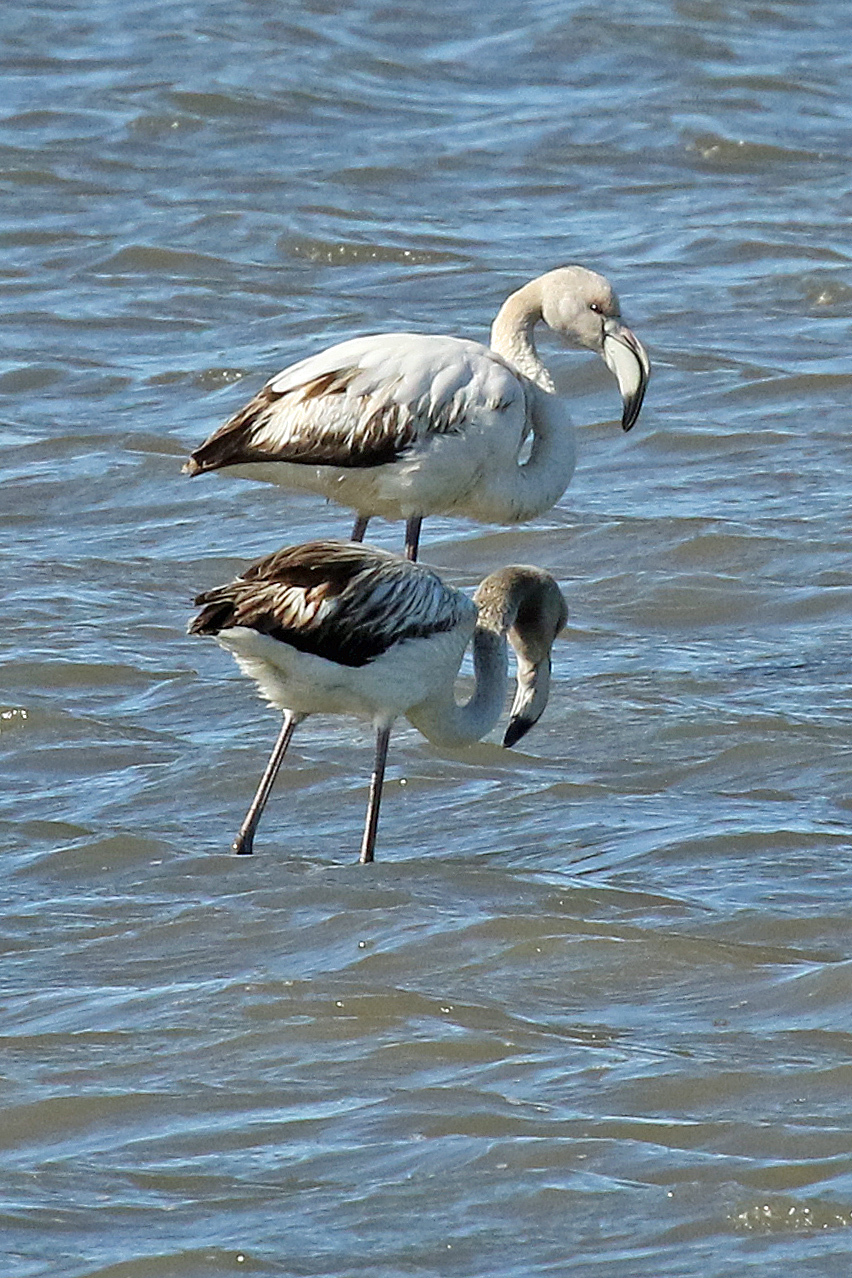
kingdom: Animalia
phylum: Chordata
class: Aves
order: Phoenicopteriformes
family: Phoenicopteridae
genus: Phoenicopterus
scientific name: Phoenicopterus roseus
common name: Greater flamingo
